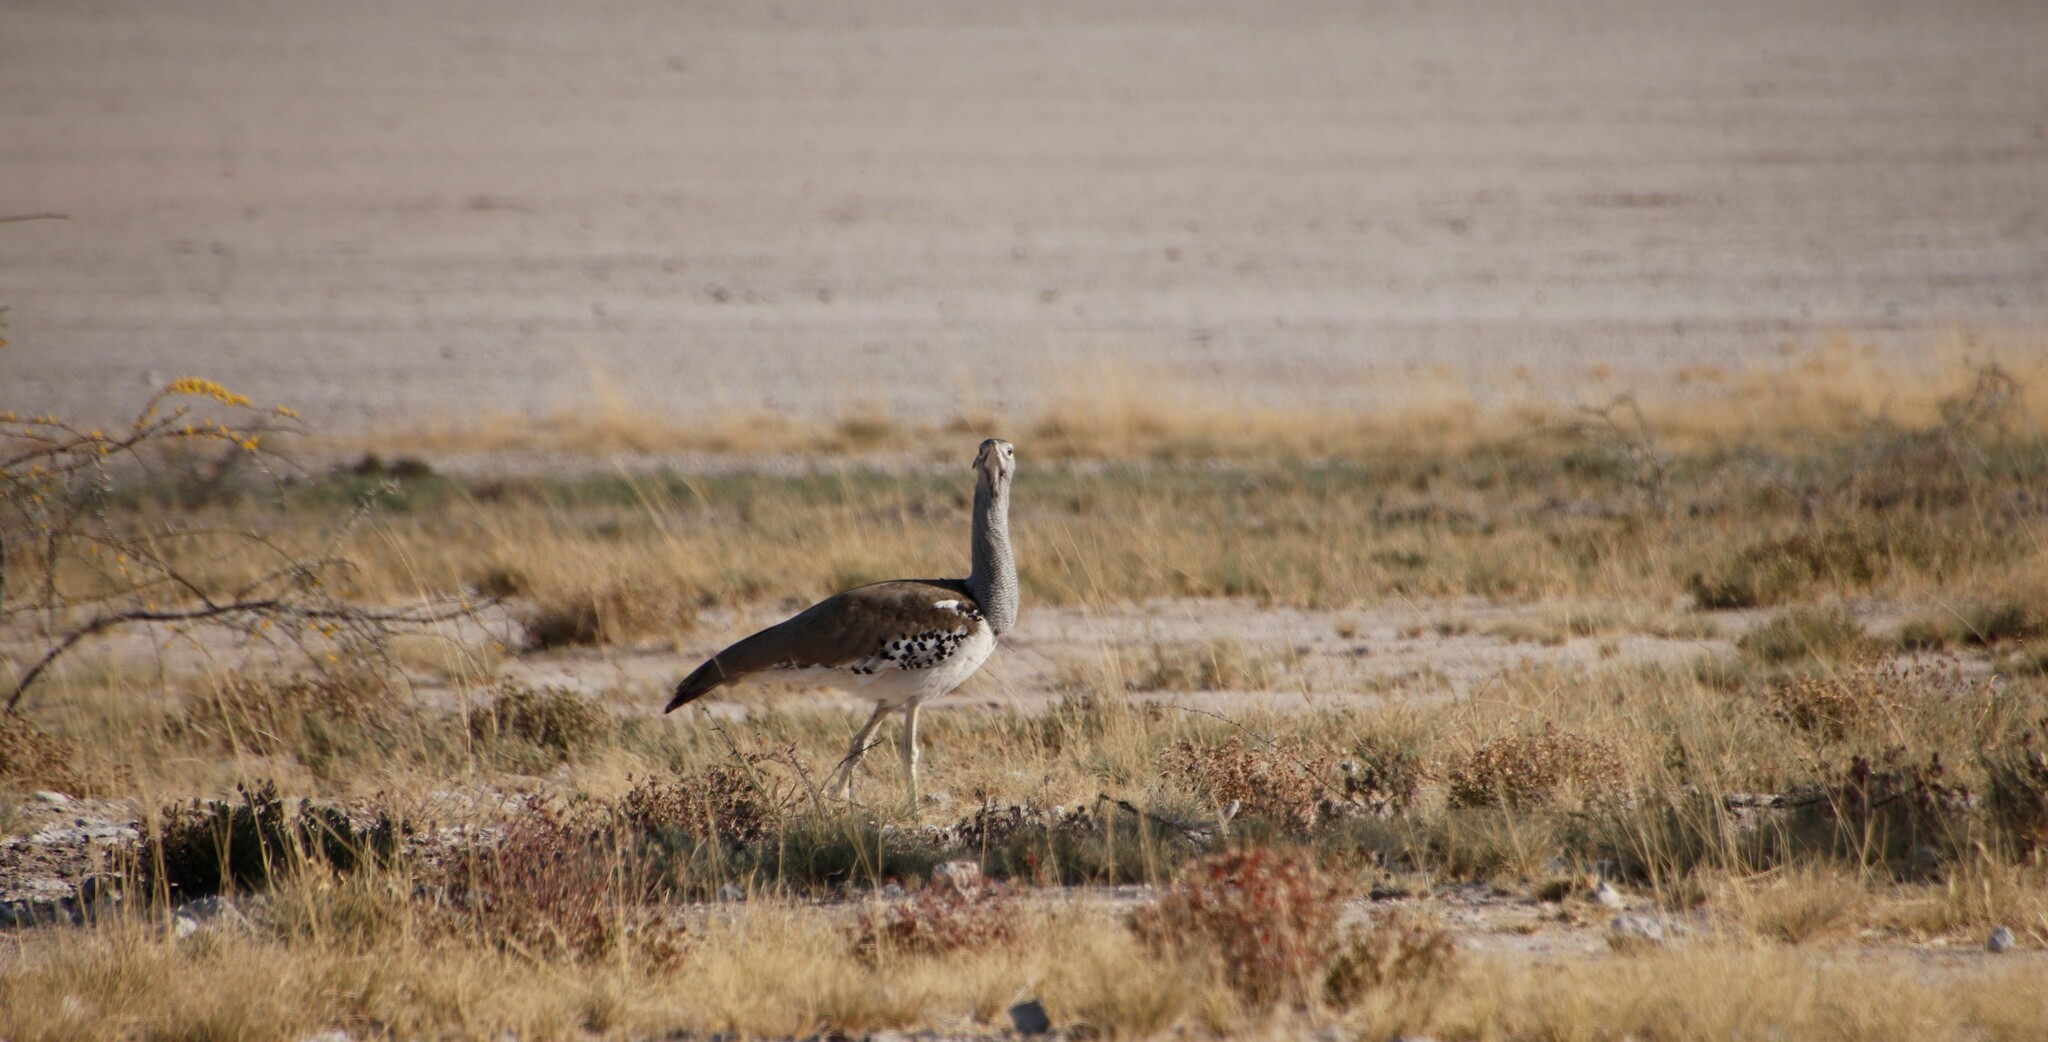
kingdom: Animalia
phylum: Chordata
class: Aves
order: Otidiformes
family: Otididae
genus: Ardeotis
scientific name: Ardeotis kori
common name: Kori bustard
